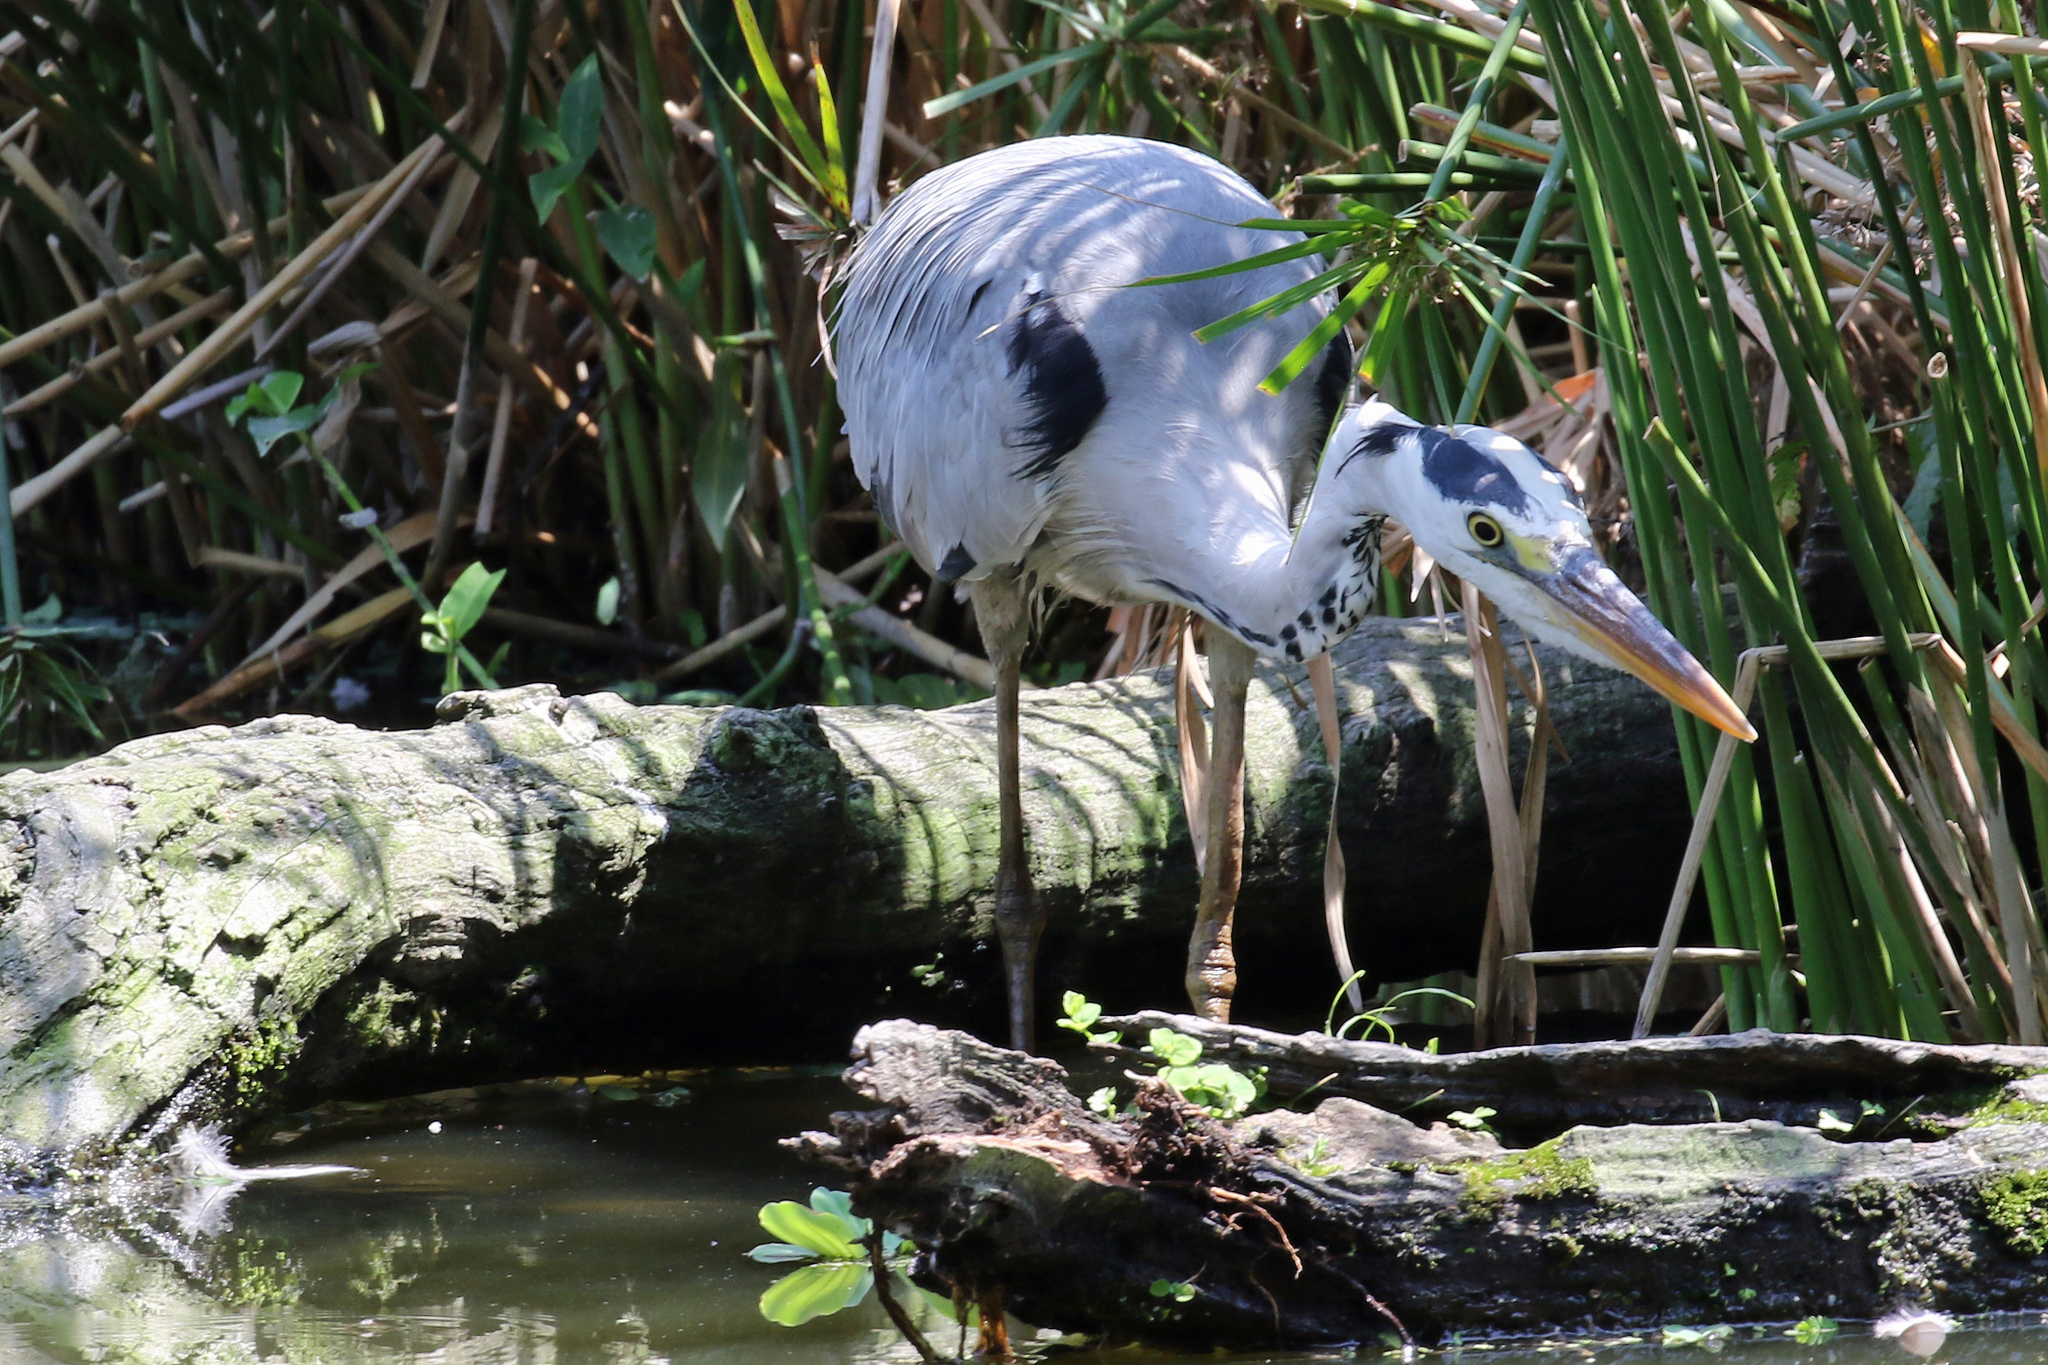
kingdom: Animalia
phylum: Chordata
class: Aves
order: Pelecaniformes
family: Ardeidae
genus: Ardea
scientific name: Ardea cinerea
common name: Grey heron
